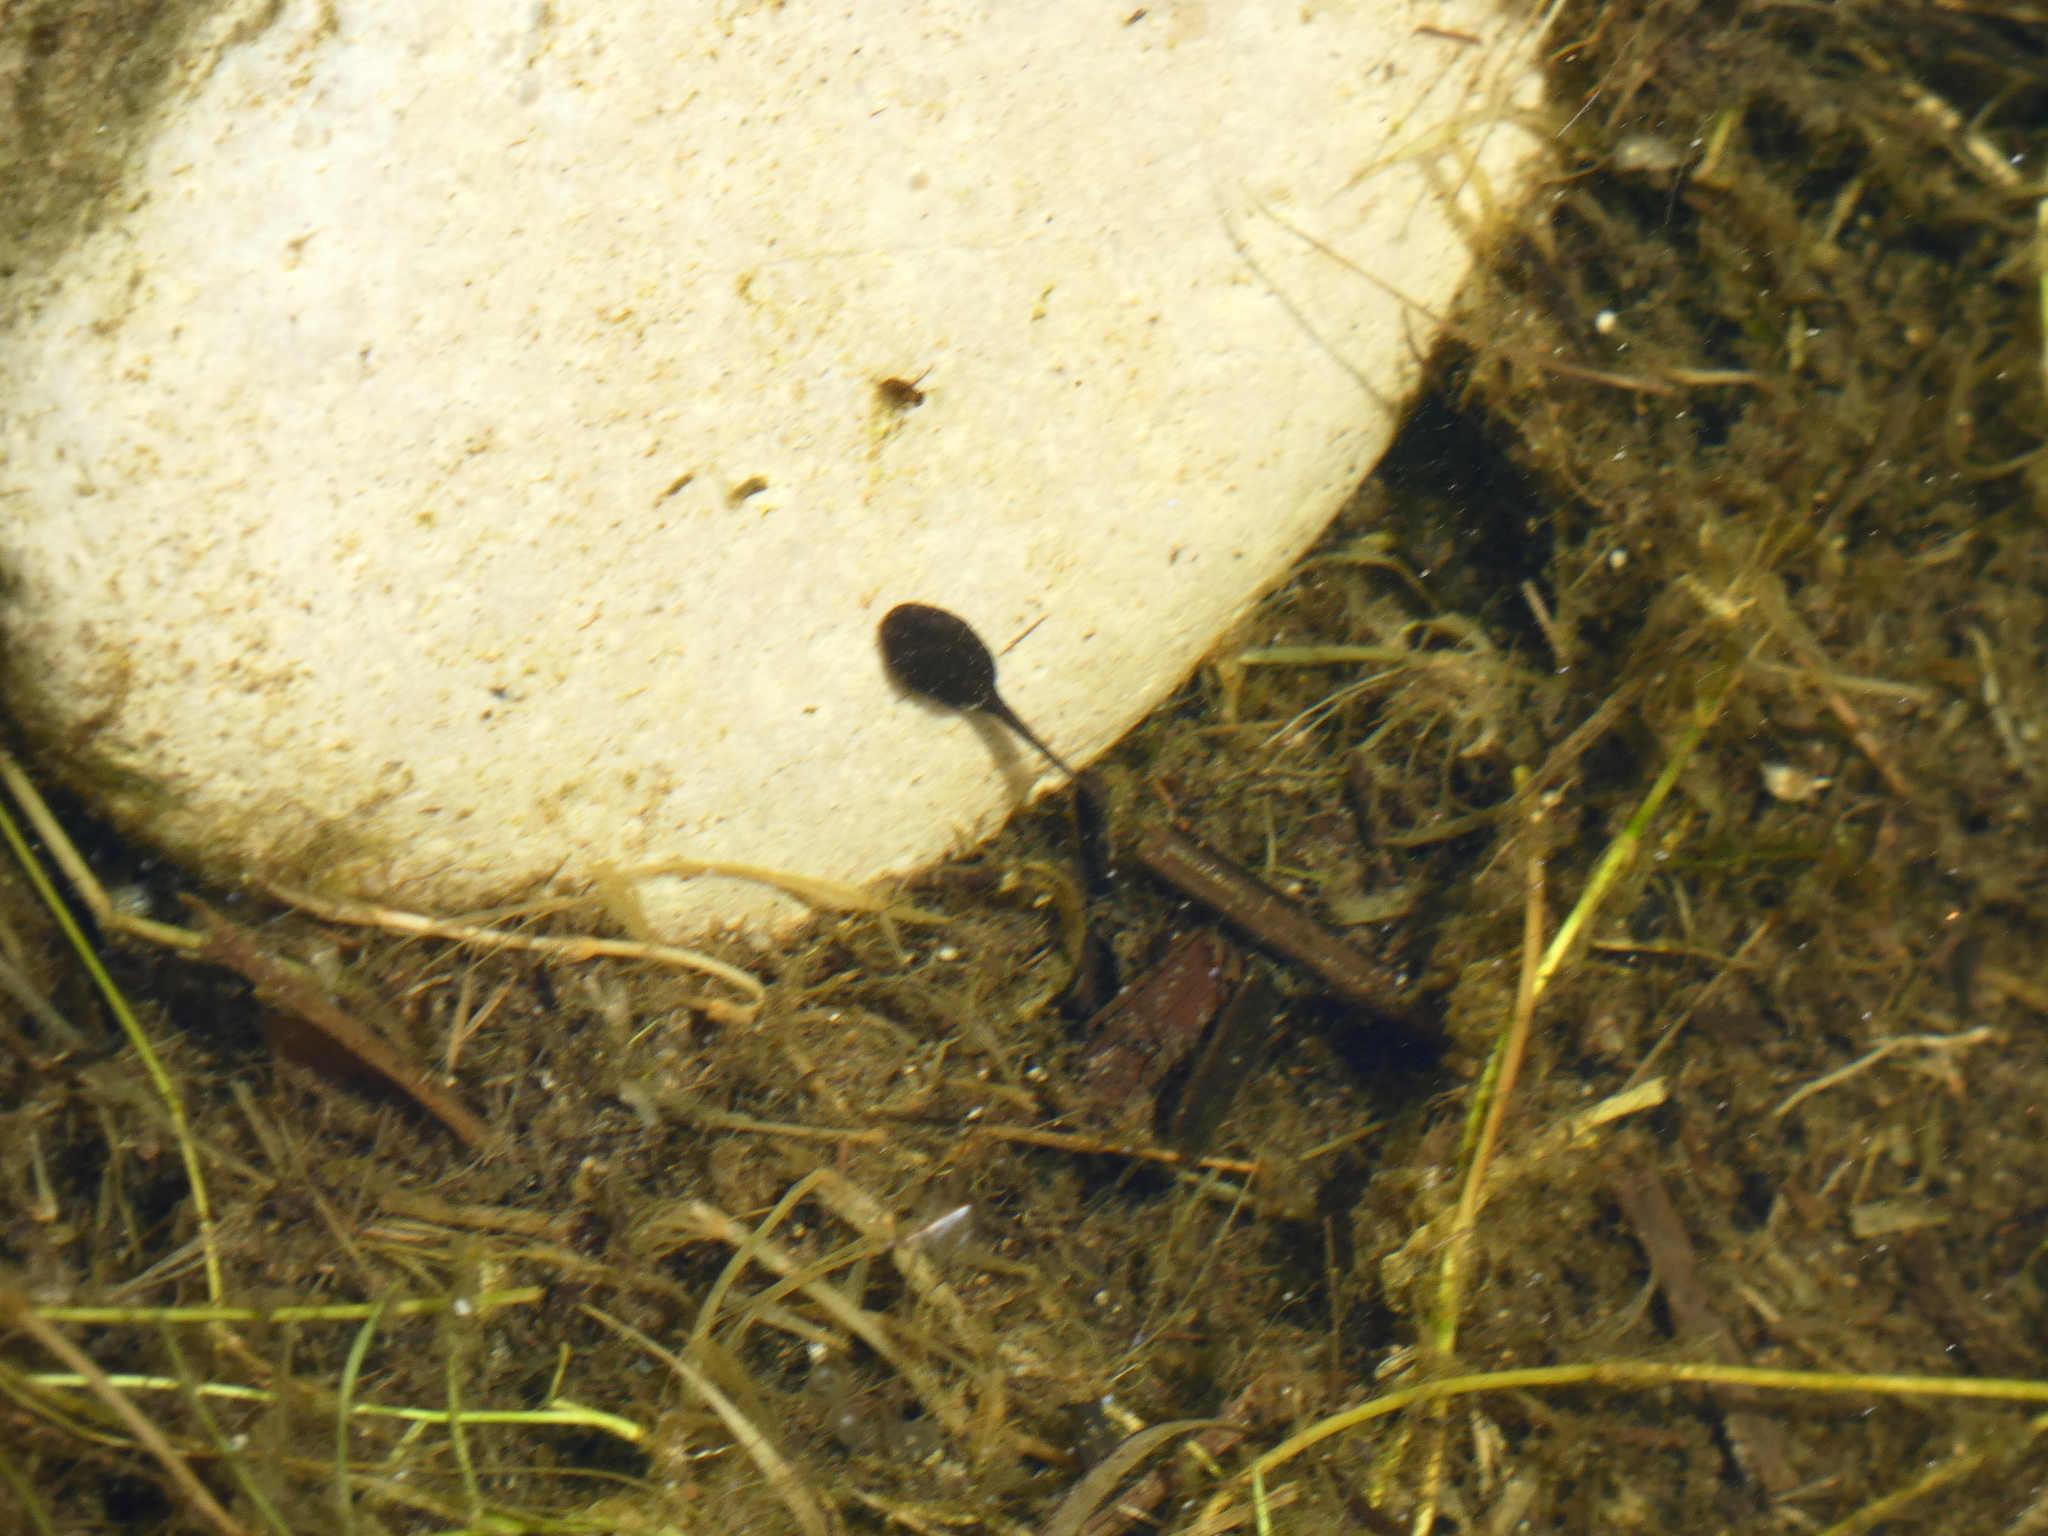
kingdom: Animalia
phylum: Chordata
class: Amphibia
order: Anura
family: Bufonidae
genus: Epidalea
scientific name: Epidalea calamita
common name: Natterjack toad
